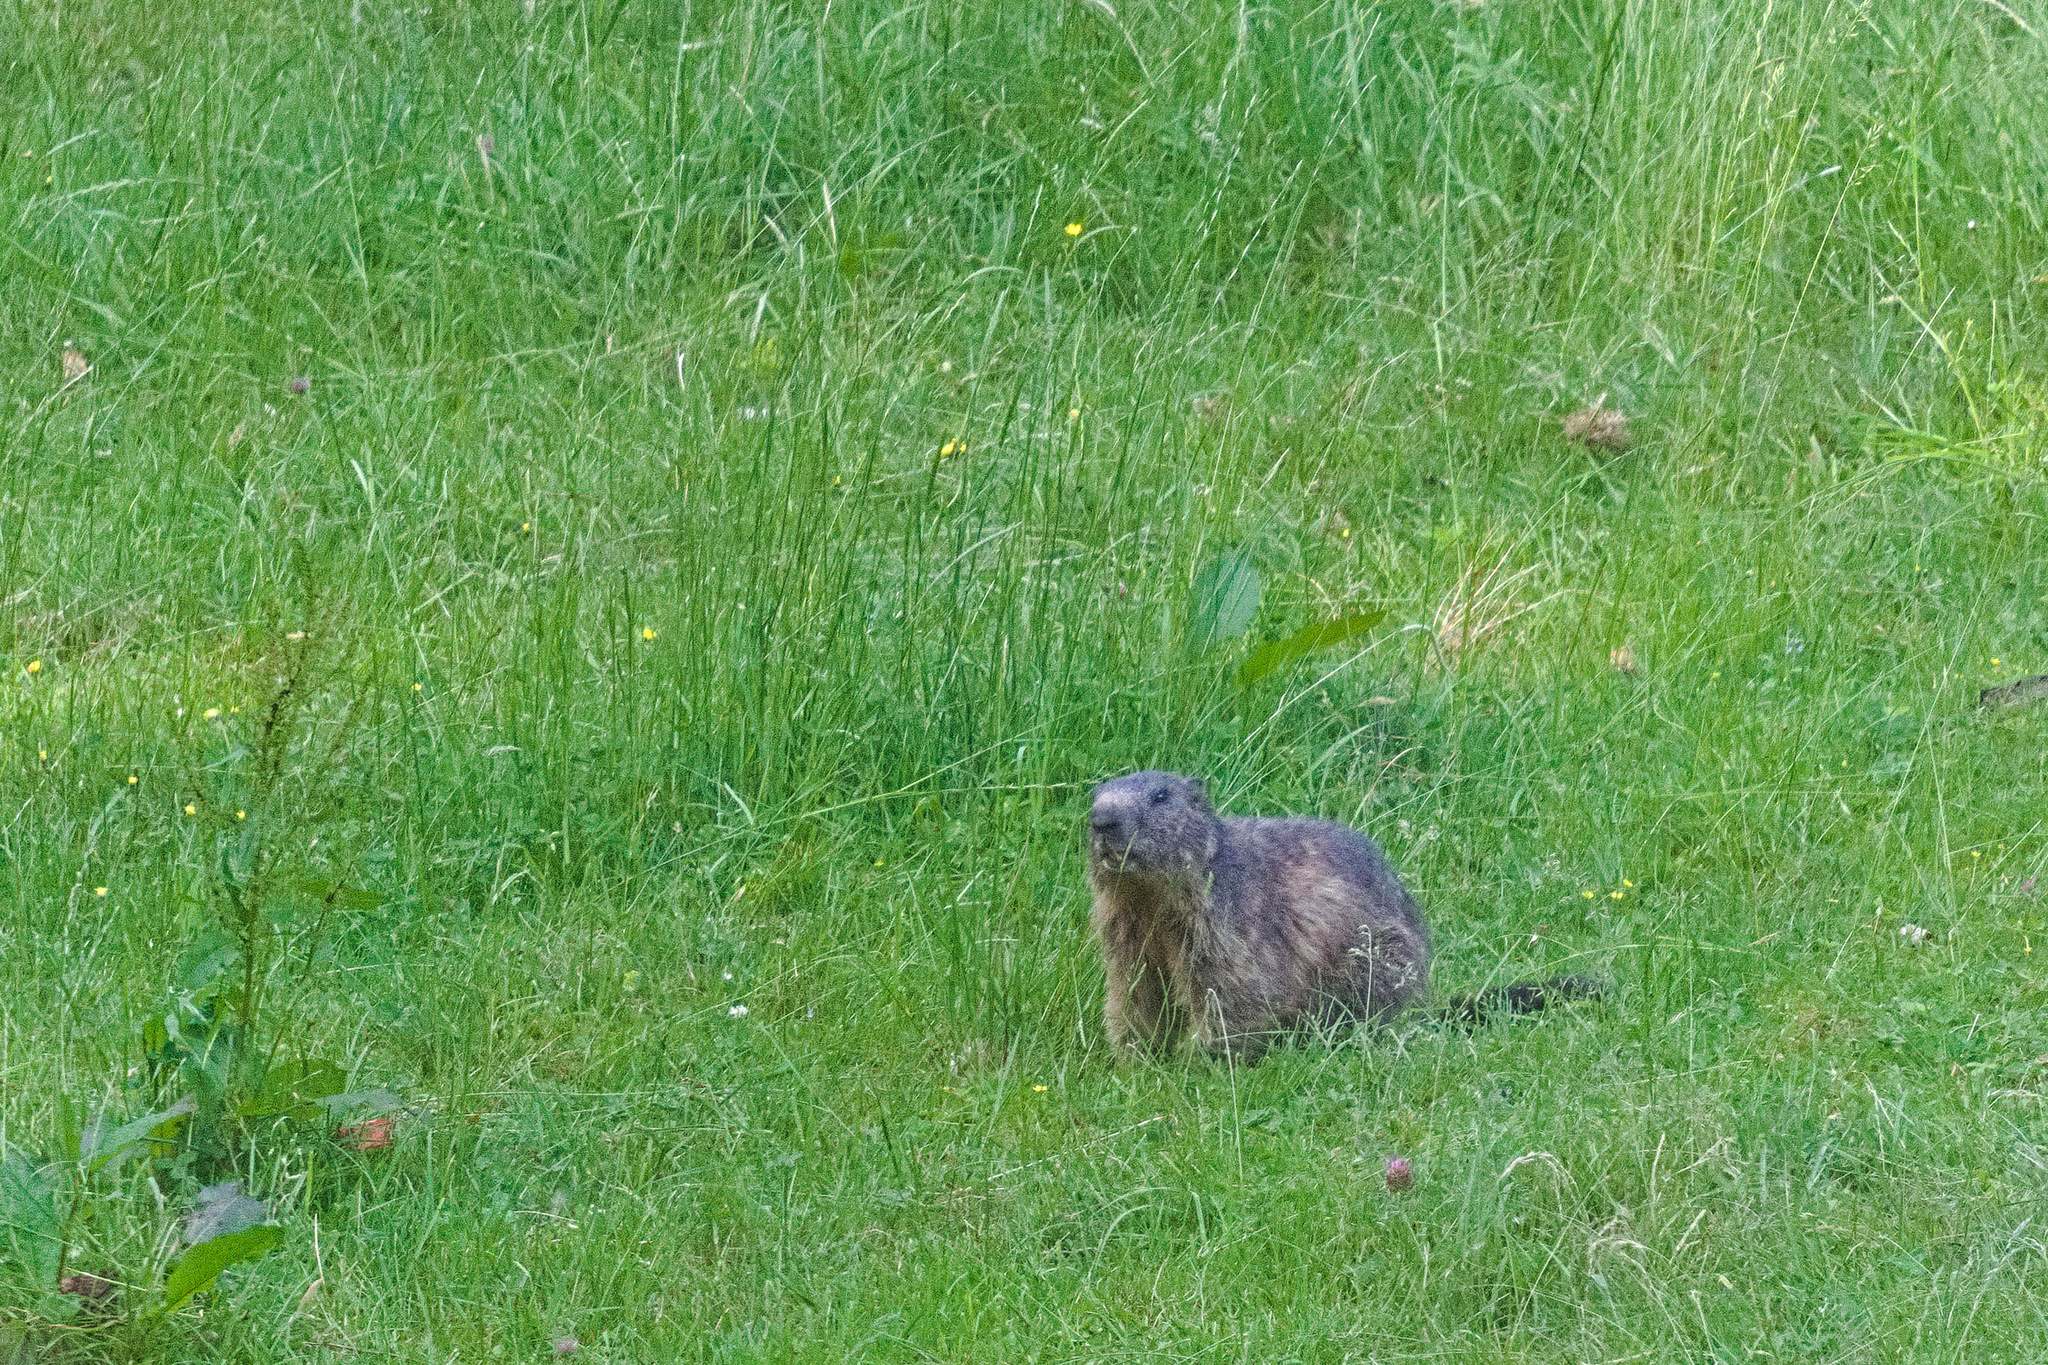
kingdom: Animalia
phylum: Chordata
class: Mammalia
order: Rodentia
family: Sciuridae
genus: Marmota
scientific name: Marmota marmota
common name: Alpine marmot
